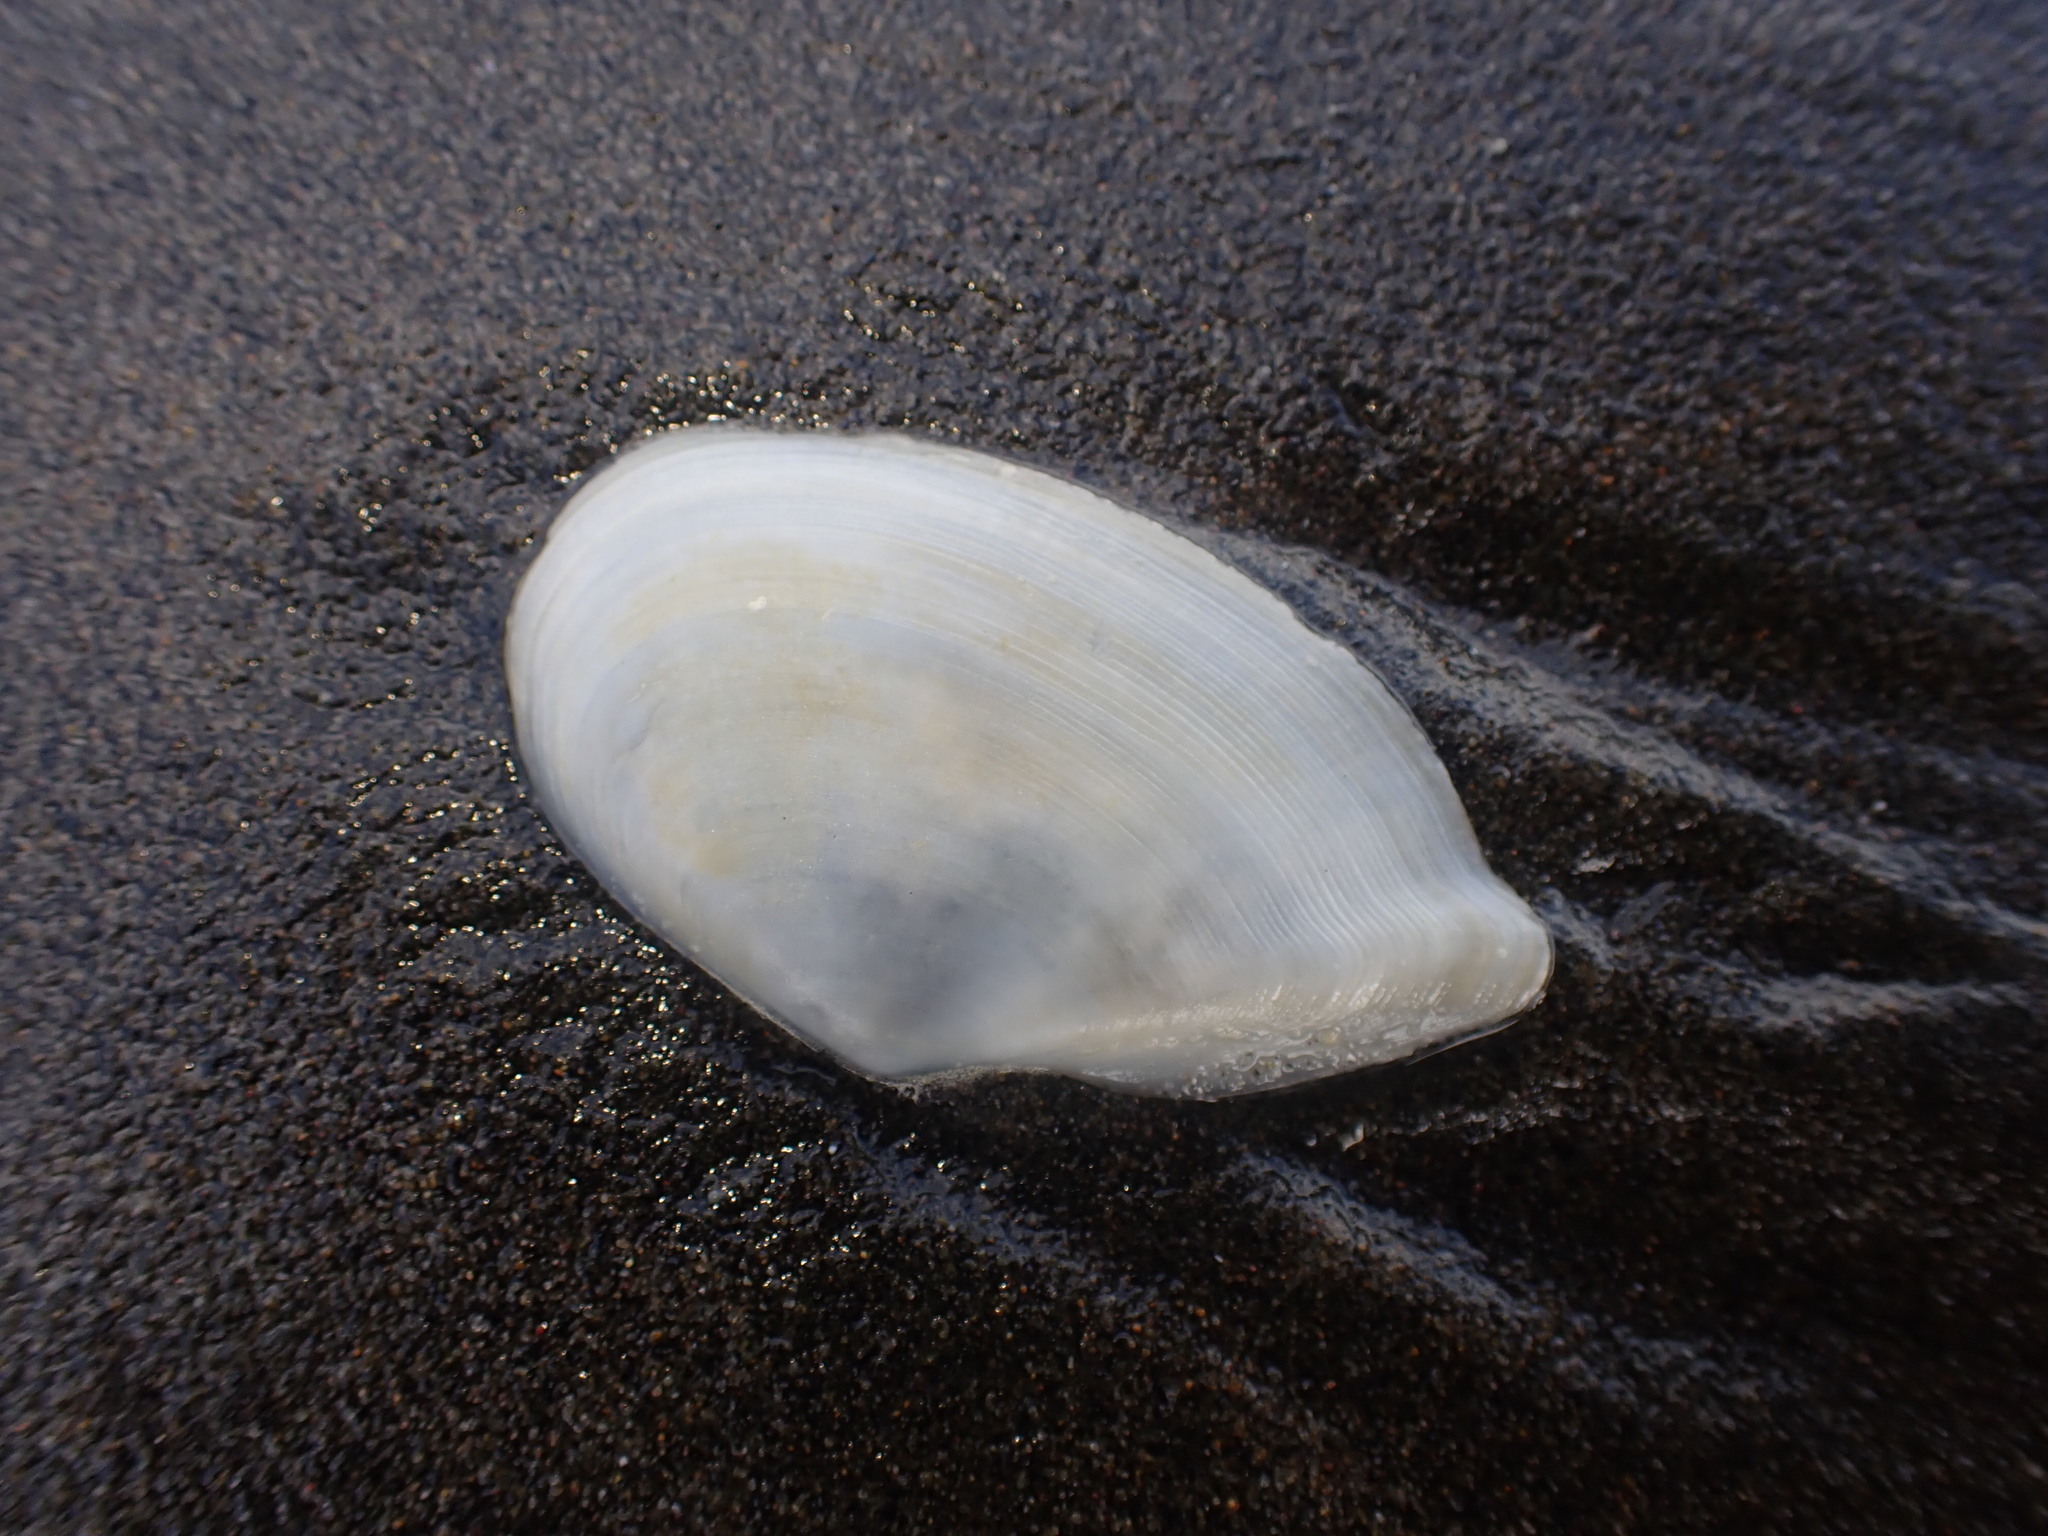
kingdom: Animalia
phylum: Mollusca
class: Bivalvia
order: Cardiida
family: Tellinidae
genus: Ardeamya
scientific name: Ardeamya spenceri
